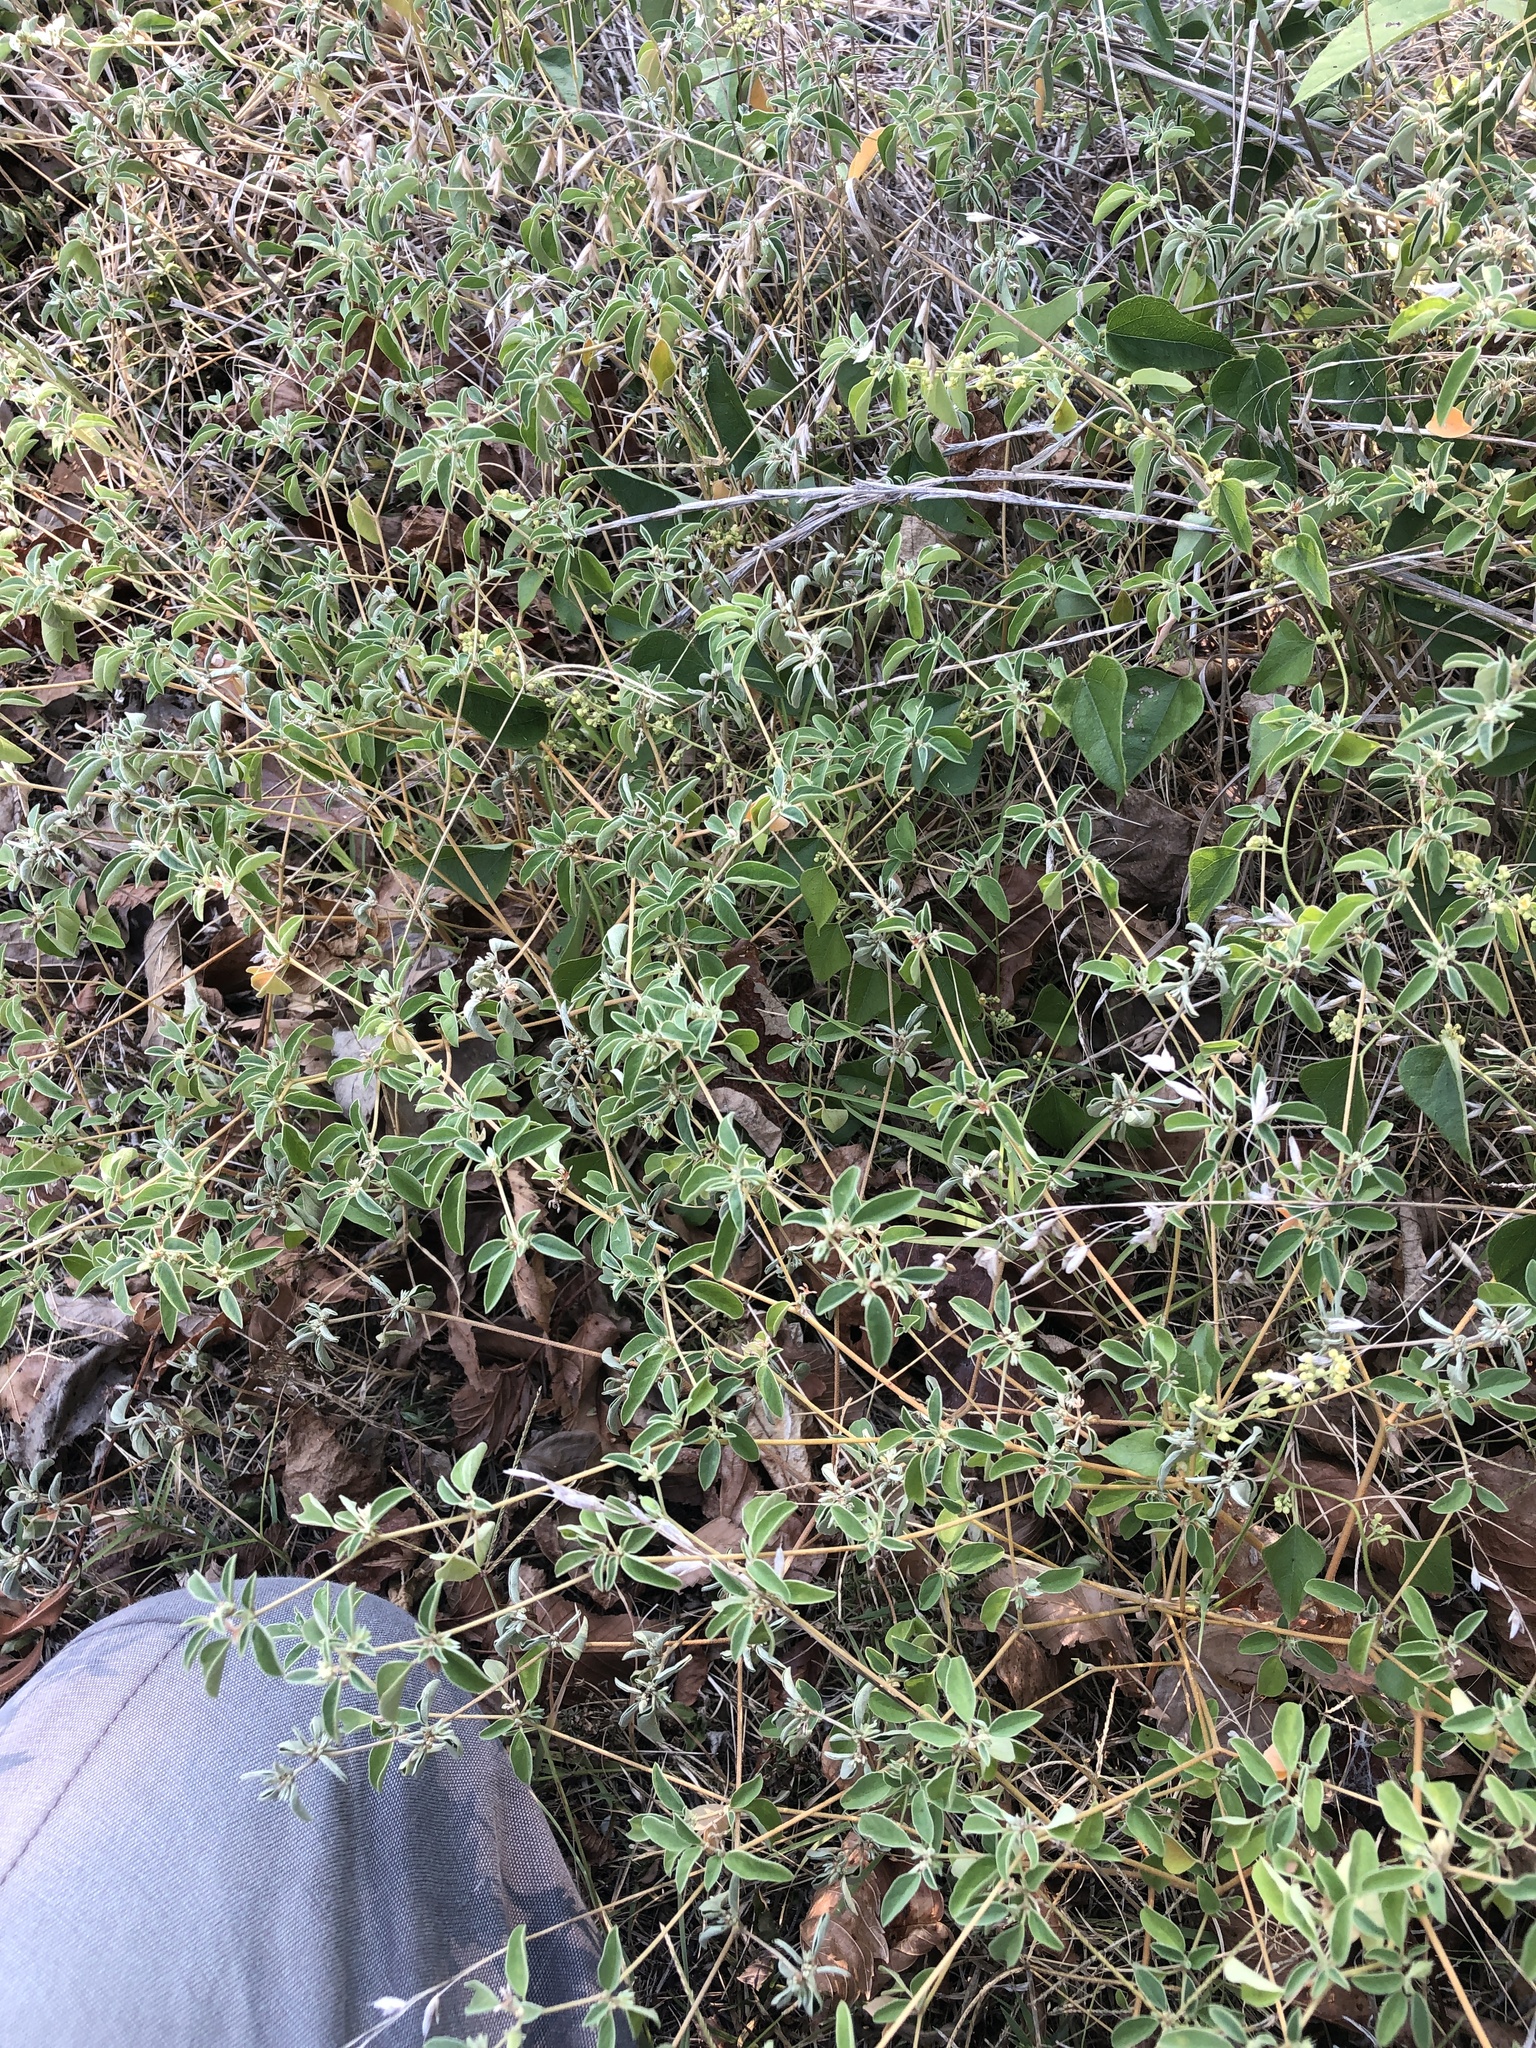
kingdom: Plantae
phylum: Tracheophyta
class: Magnoliopsida
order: Malpighiales
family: Euphorbiaceae
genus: Croton
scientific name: Croton monanthogynus
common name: One-seed croton
